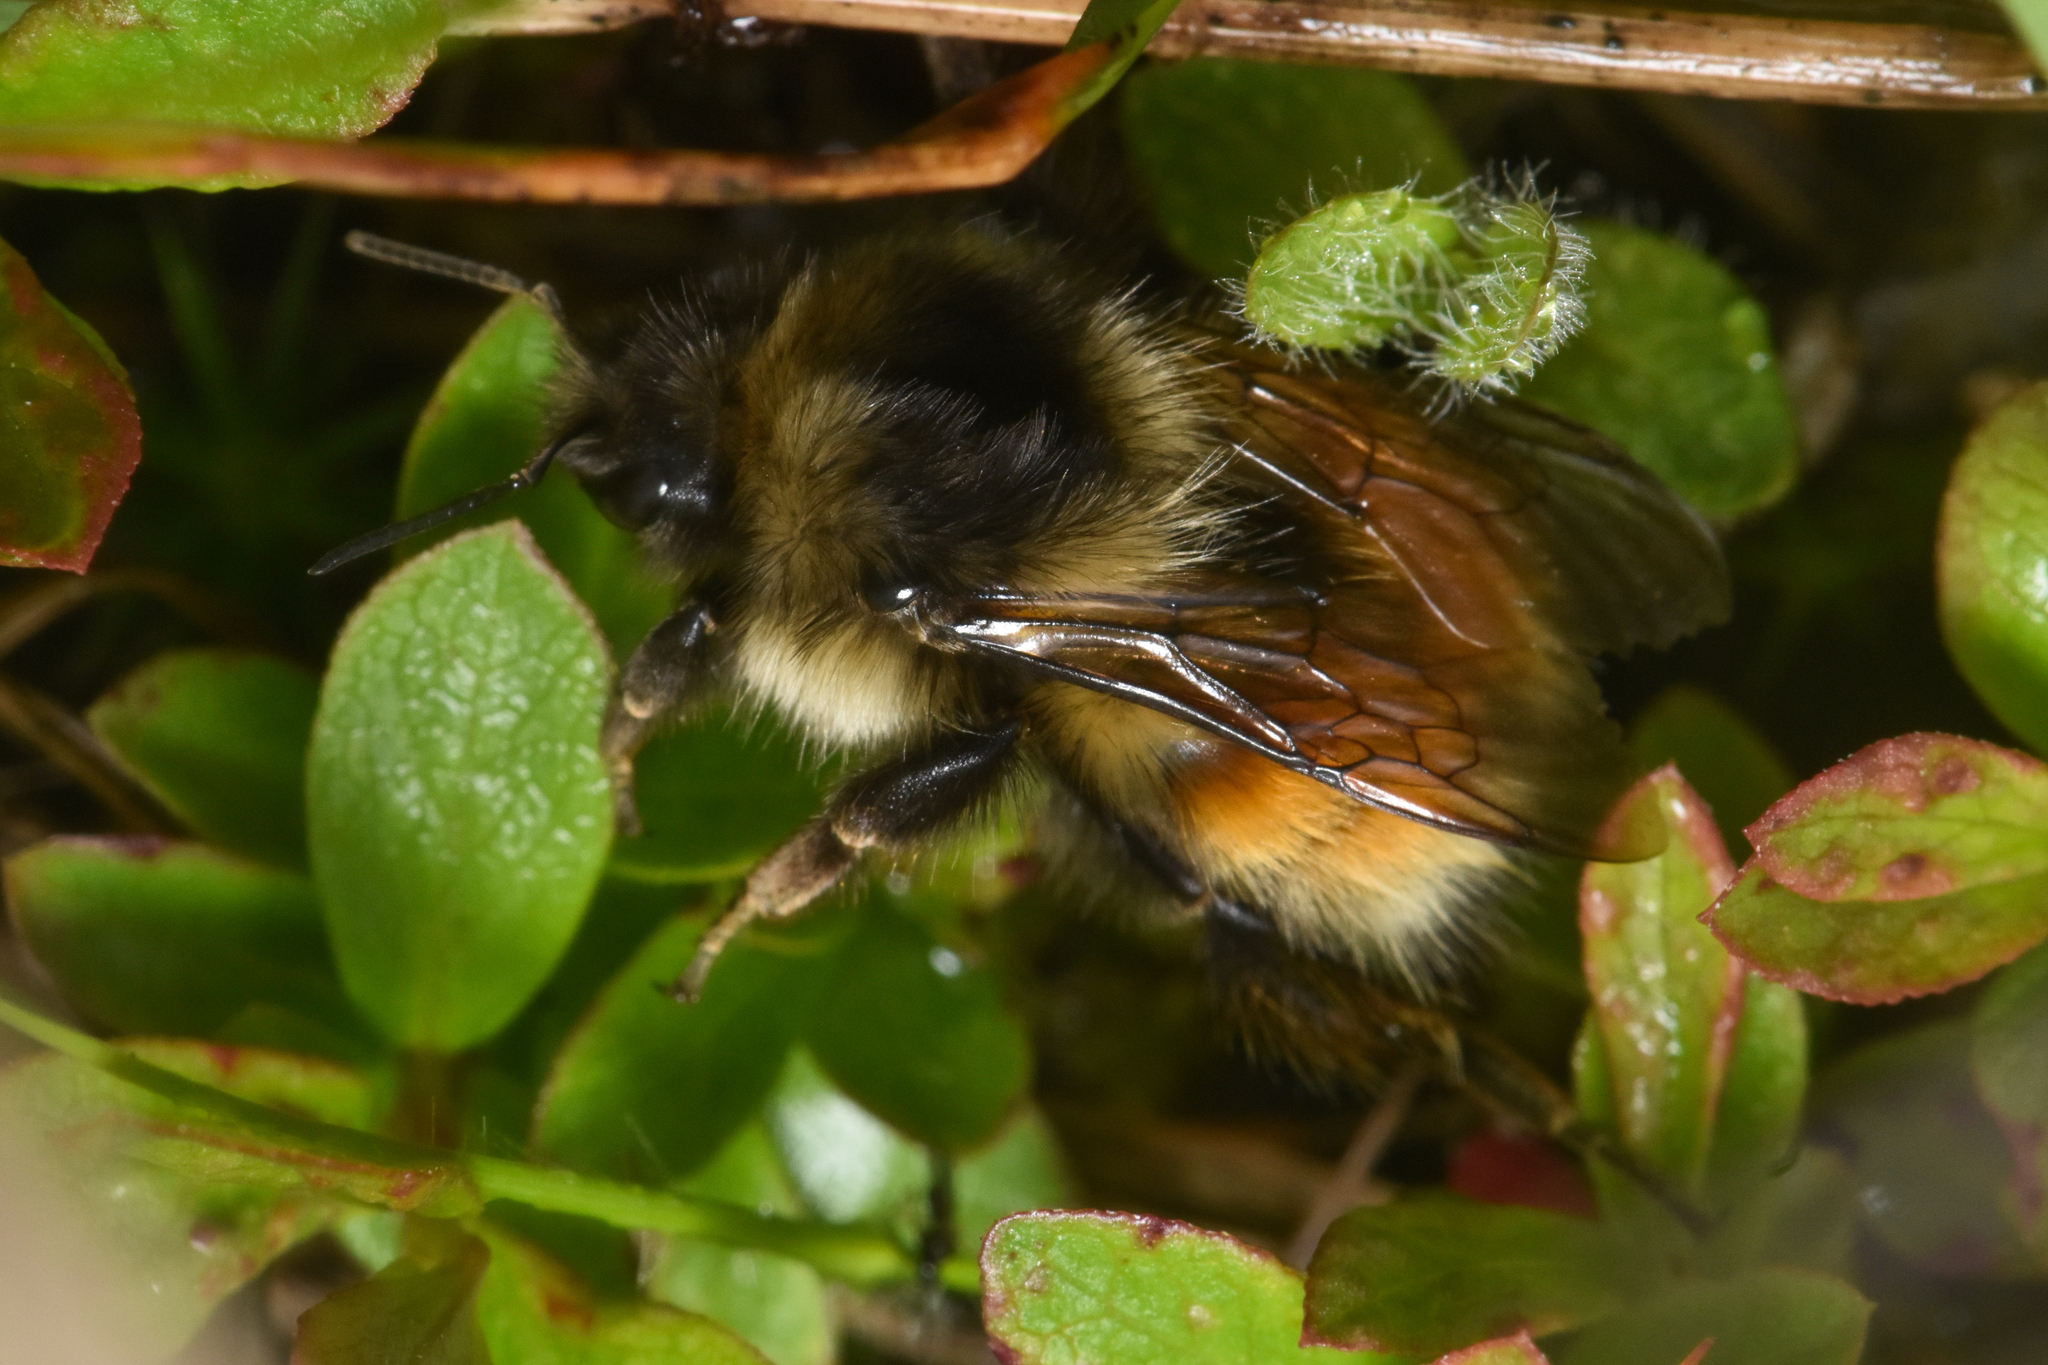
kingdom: Animalia
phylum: Arthropoda
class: Insecta
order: Hymenoptera
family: Apidae
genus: Bombus
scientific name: Bombus melanopygus
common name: Black tail bumble bee
